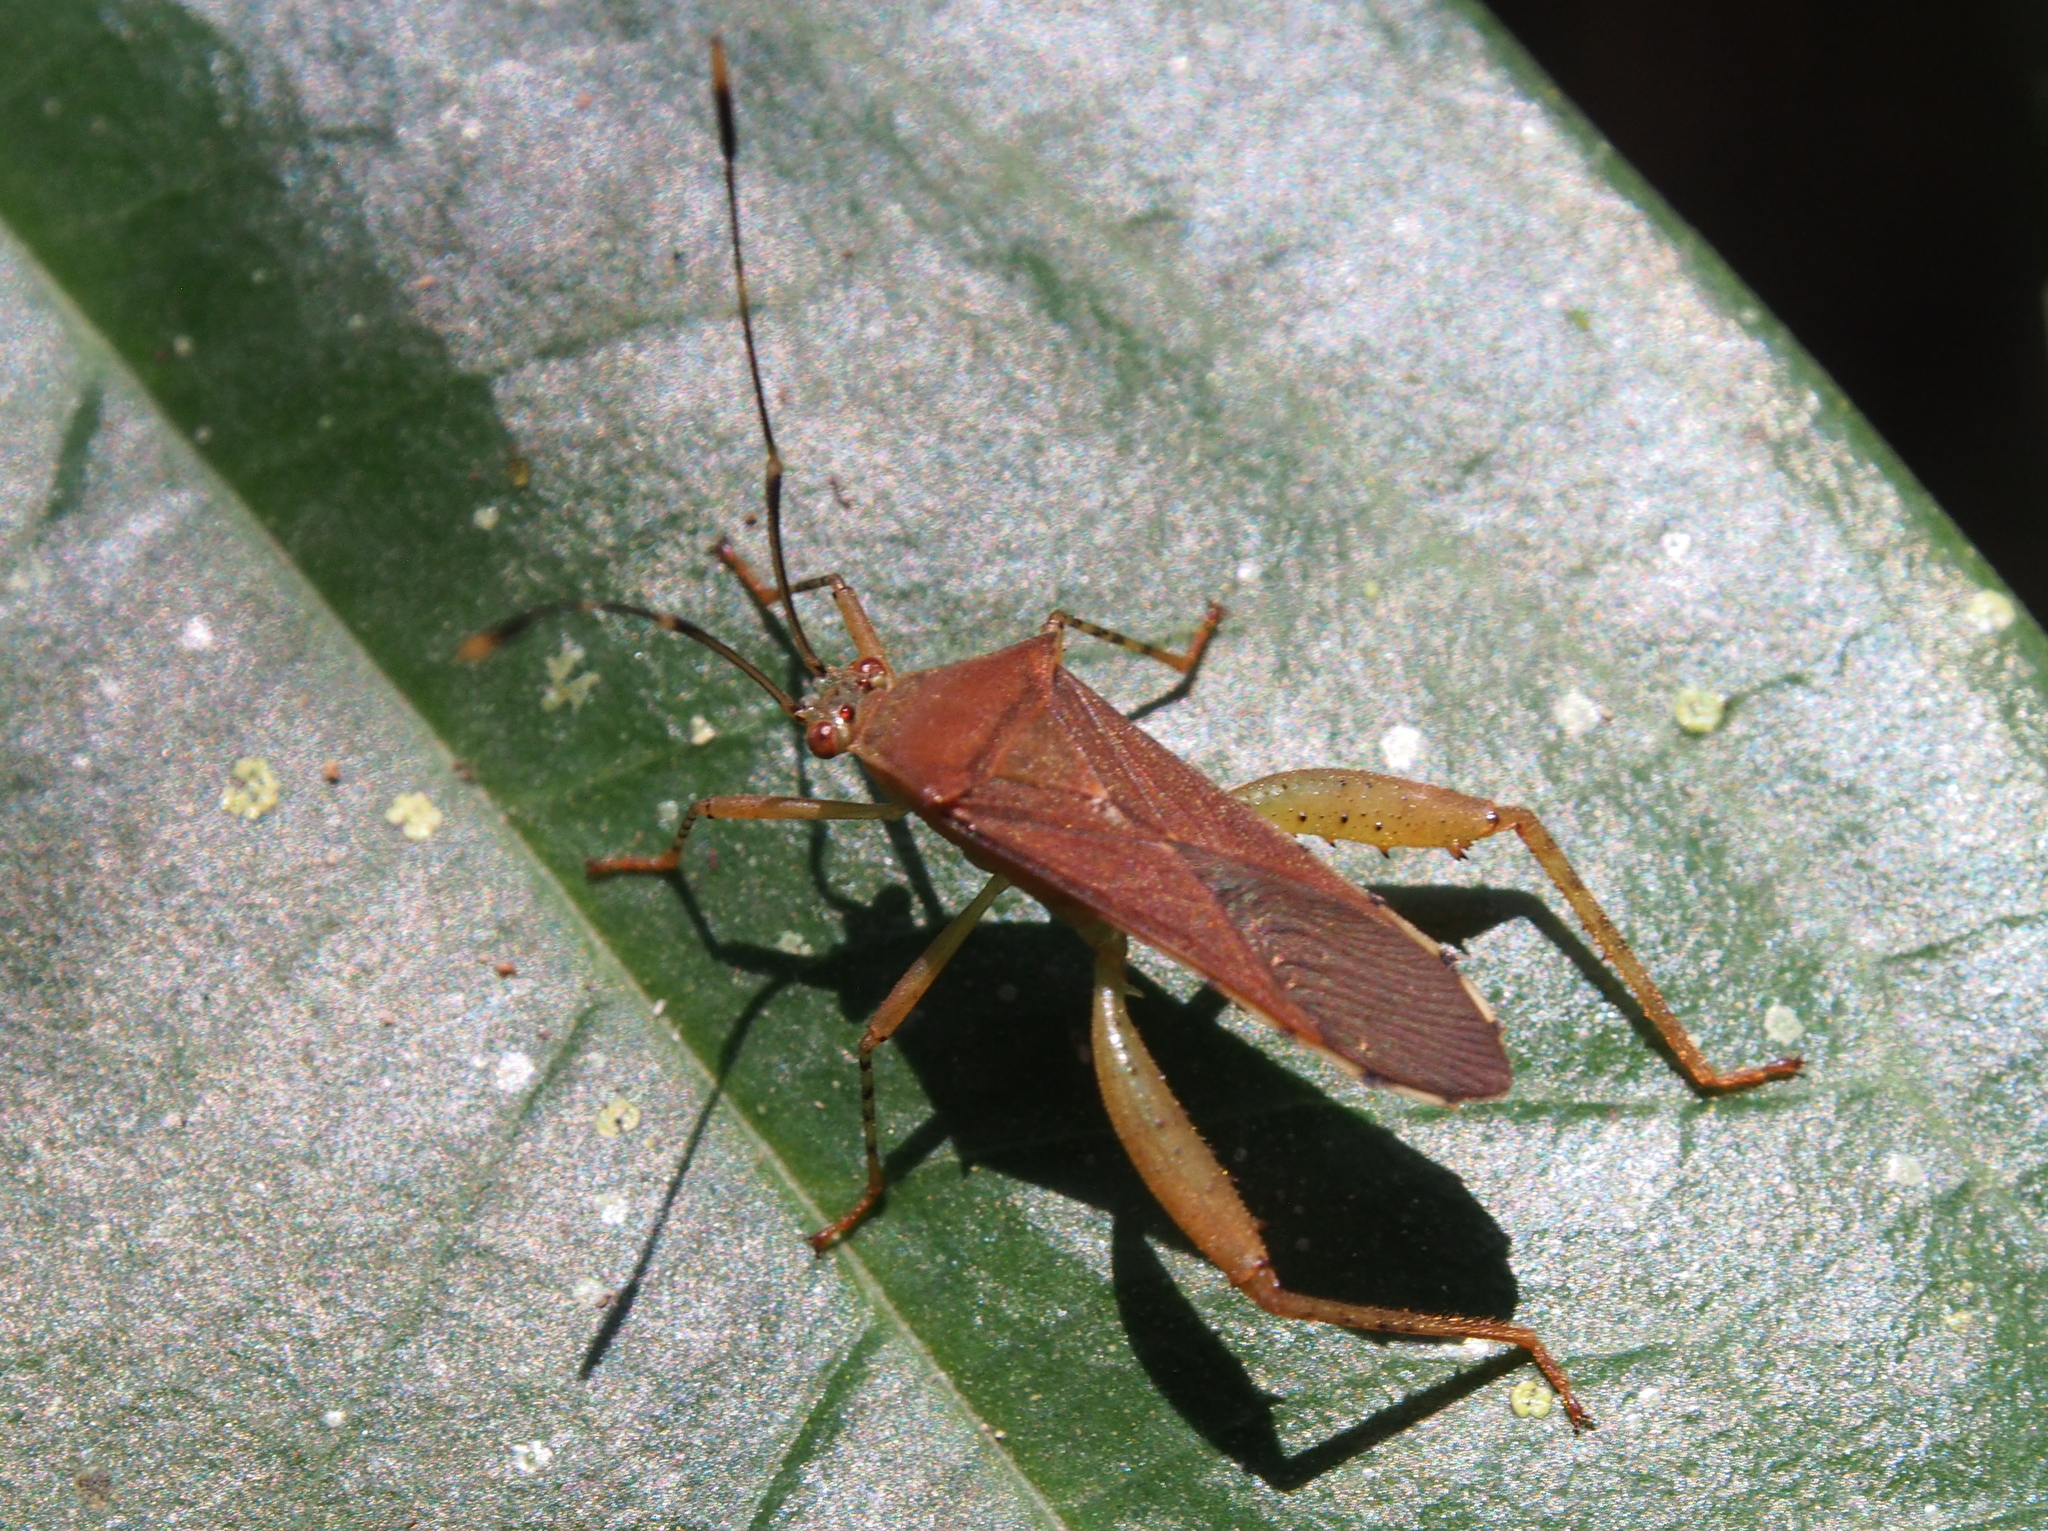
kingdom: Animalia
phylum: Arthropoda
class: Insecta
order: Hemiptera
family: Coreidae
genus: Zoreva
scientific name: Zoreva lobulata
